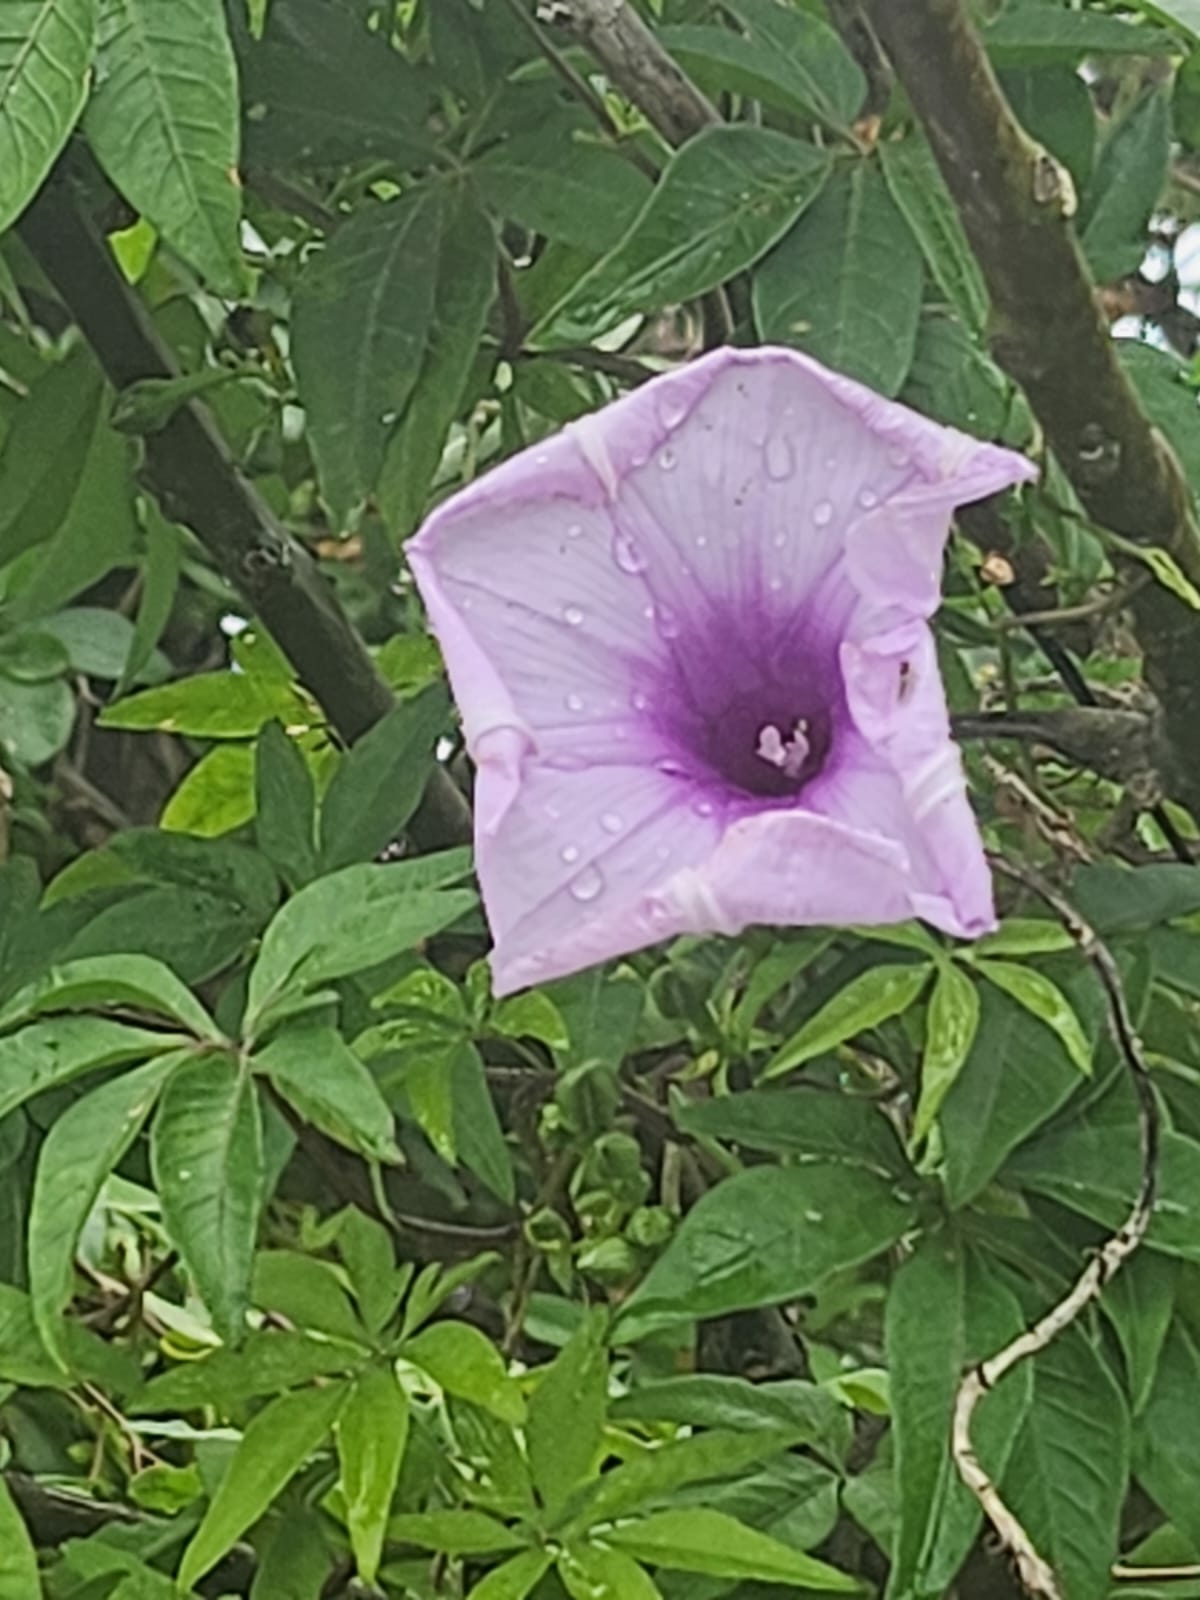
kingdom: Plantae
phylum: Tracheophyta
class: Magnoliopsida
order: Solanales
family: Convolvulaceae
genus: Ipomoea
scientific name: Ipomoea cairica
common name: Mile a minute vine
